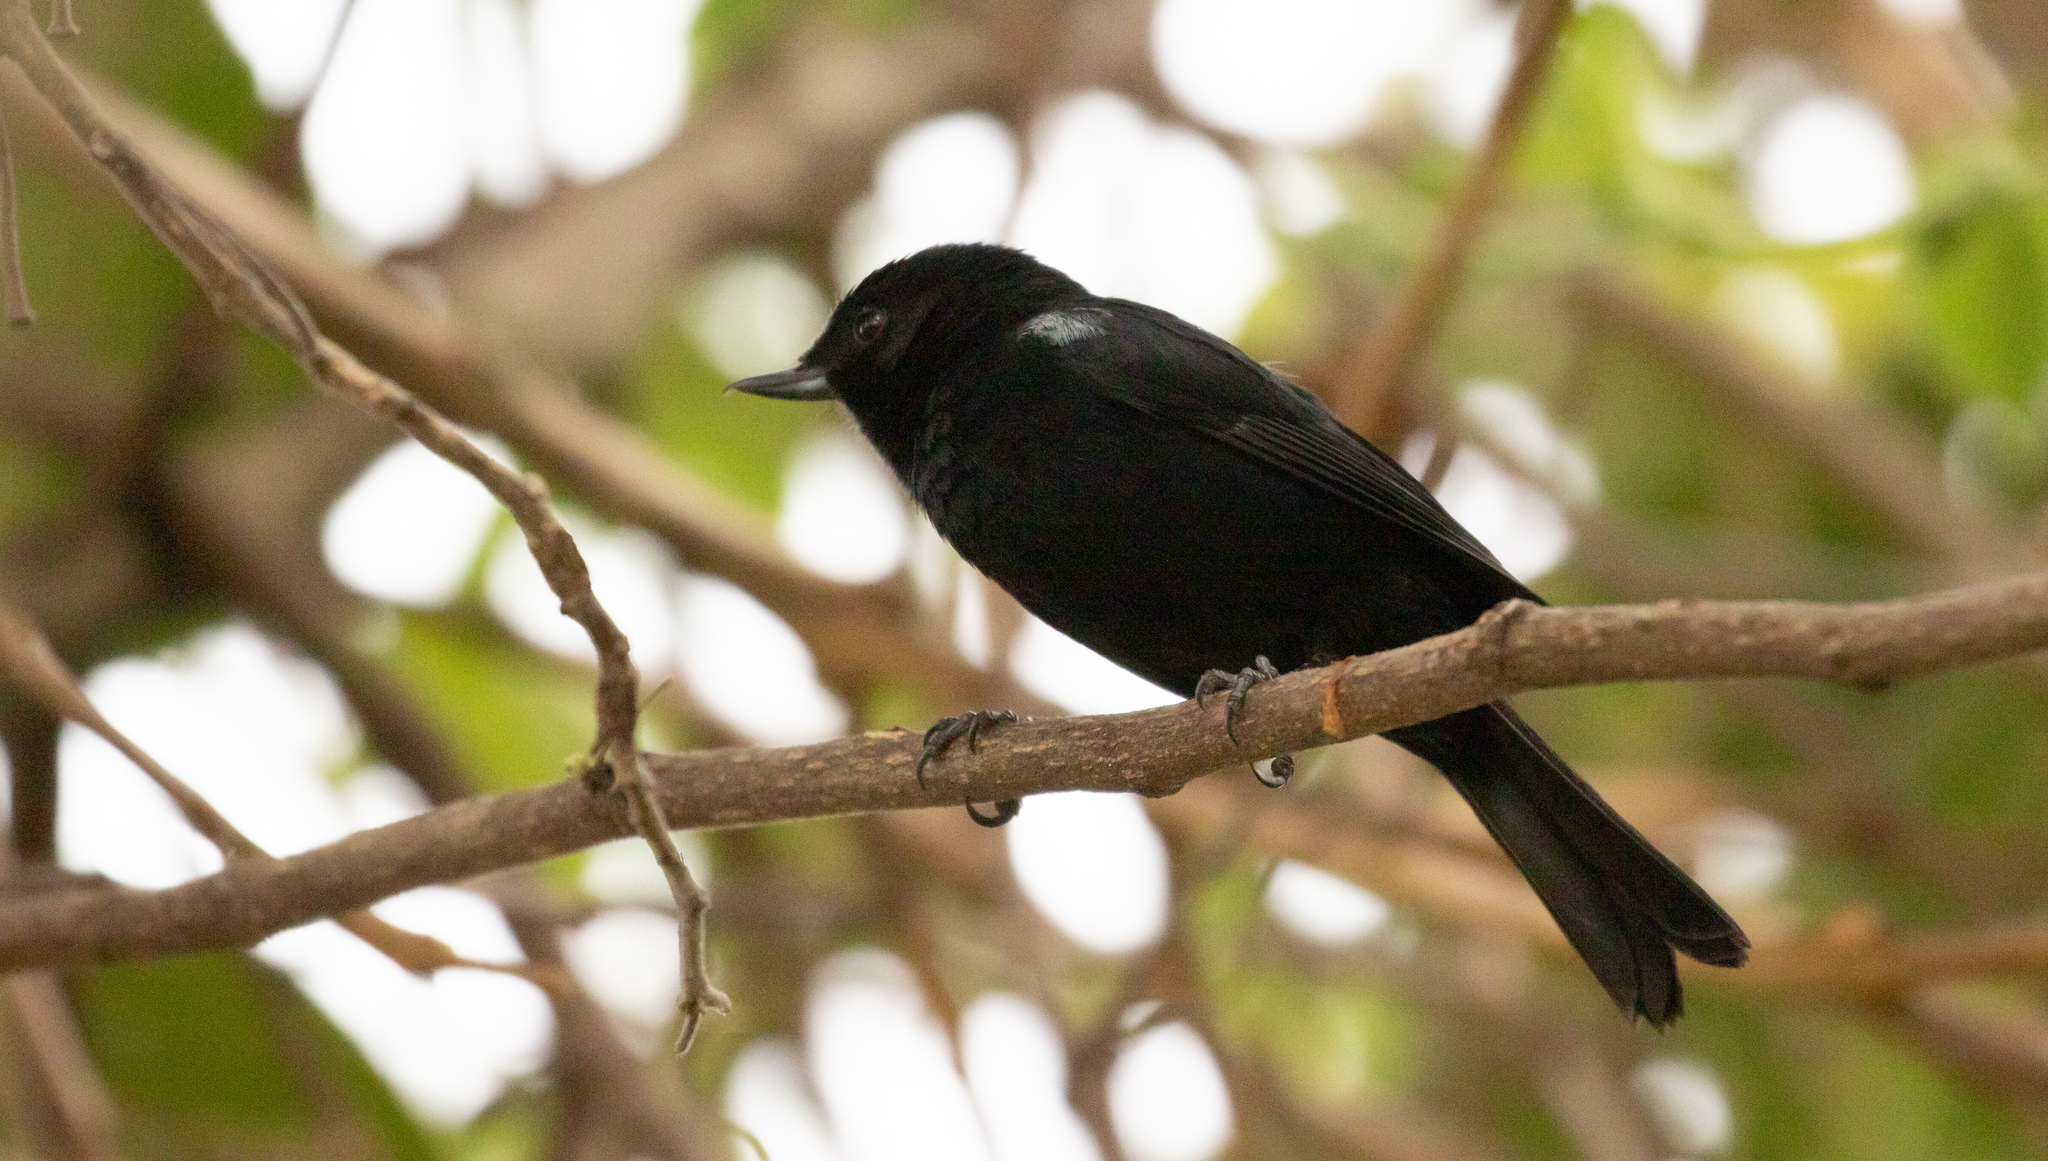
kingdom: Animalia
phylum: Chordata
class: Aves
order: Passeriformes
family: Thraupidae
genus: Diglossa
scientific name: Diglossa humeralis
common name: Black flowerpiercer
